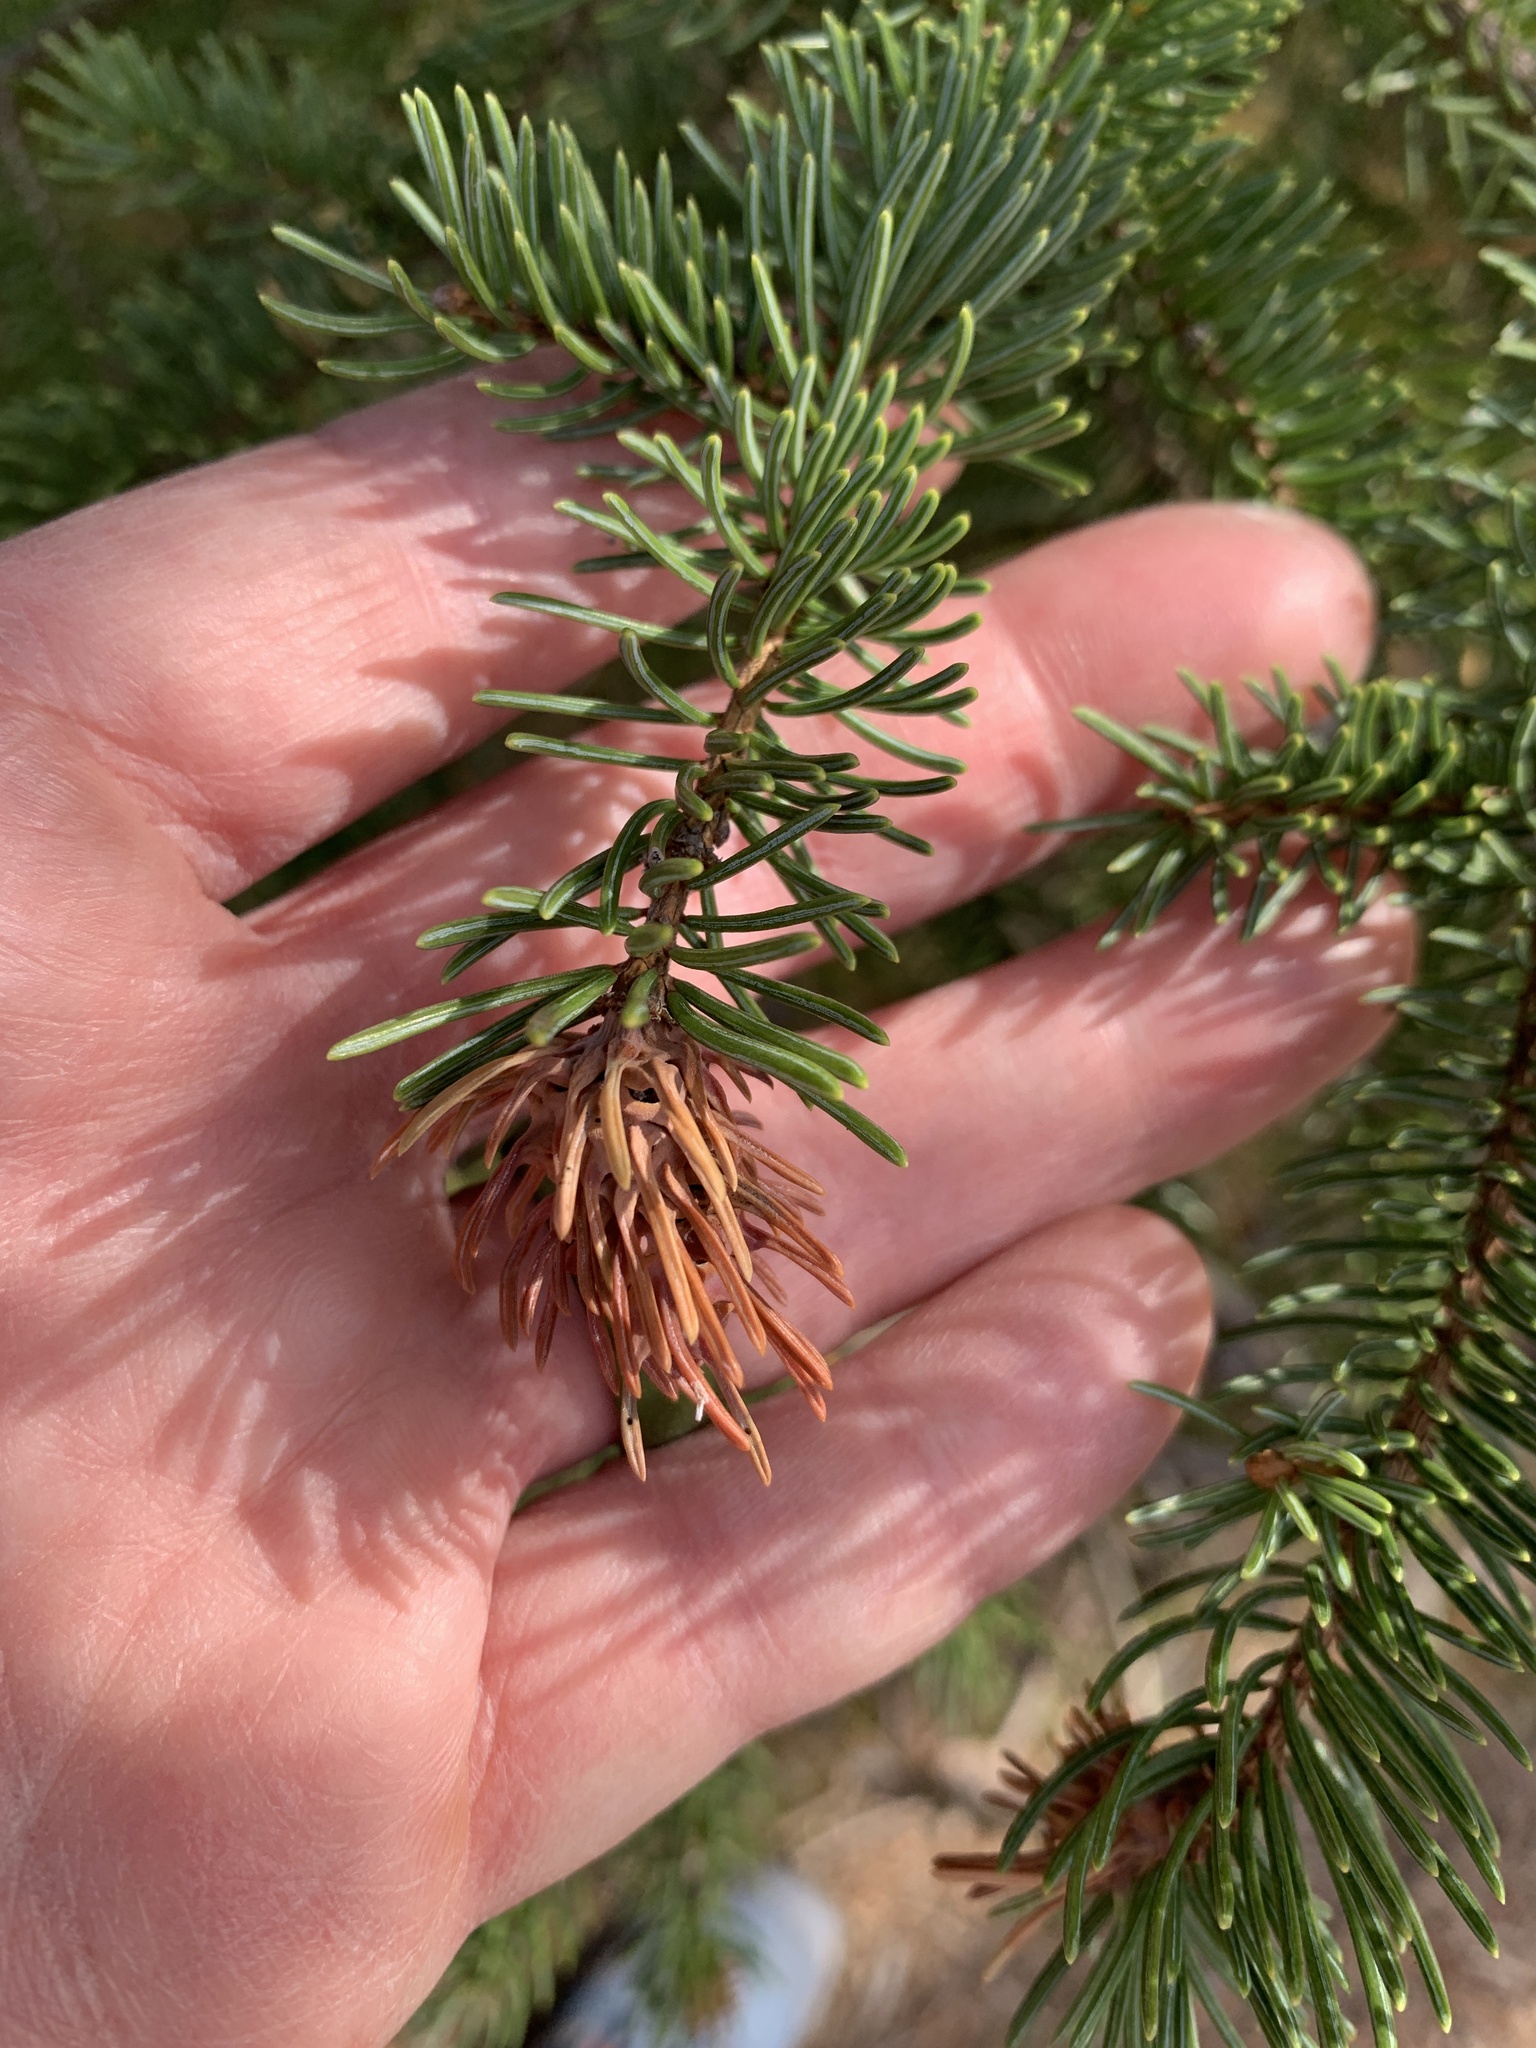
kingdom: Animalia
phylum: Arthropoda
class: Insecta
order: Hemiptera
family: Adelgidae
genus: Adelges
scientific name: Adelges cooleyi
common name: Cooley spruce gall adelgid
